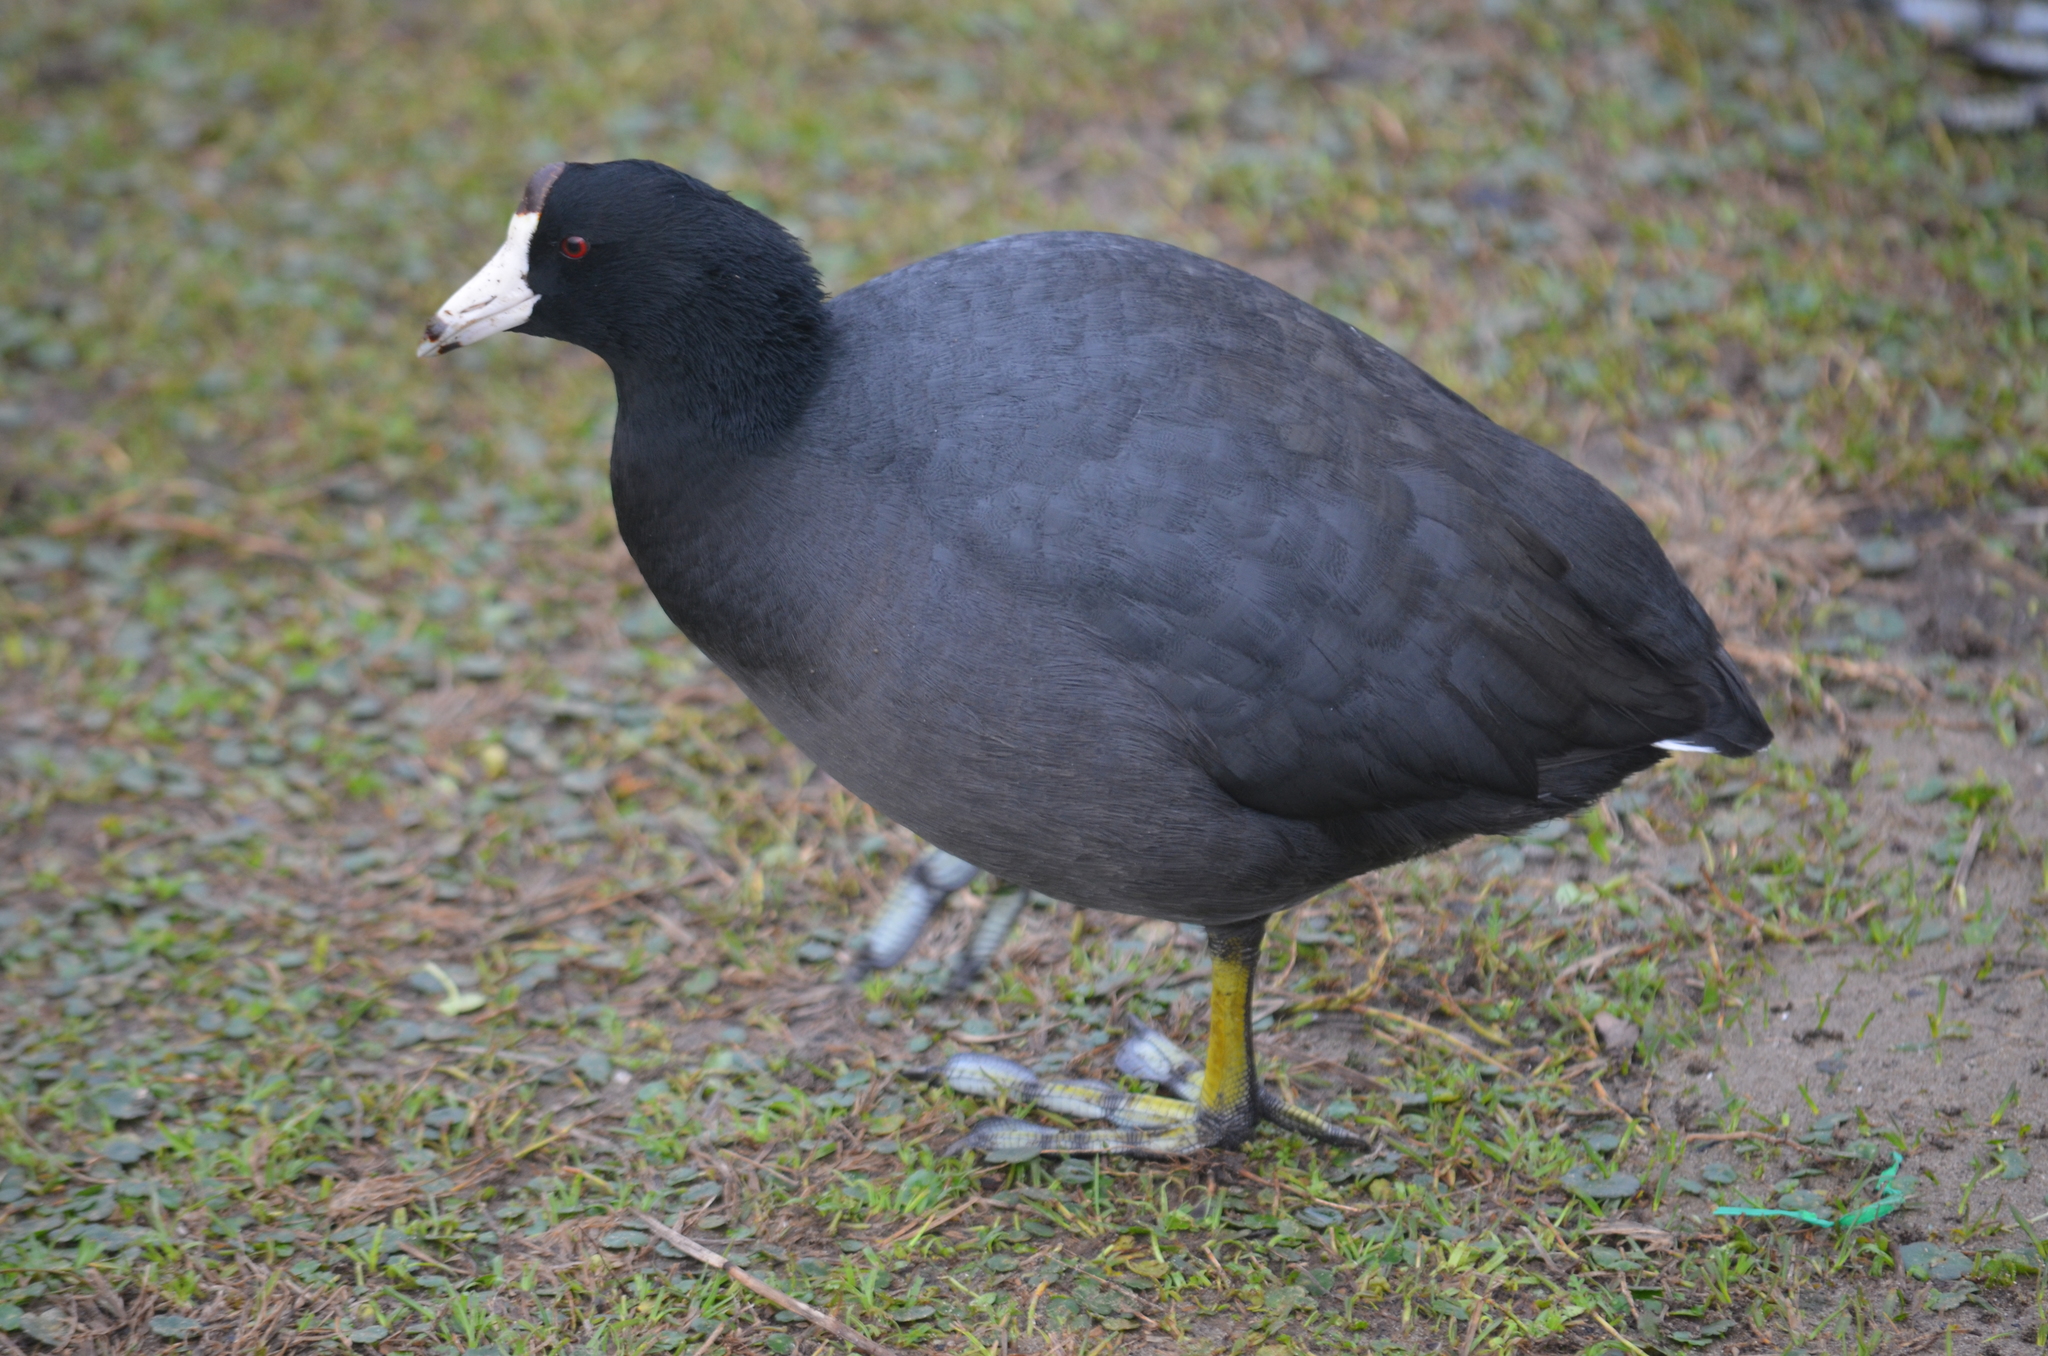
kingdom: Animalia
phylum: Chordata
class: Aves
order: Gruiformes
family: Rallidae
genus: Fulica
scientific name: Fulica americana
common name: American coot
